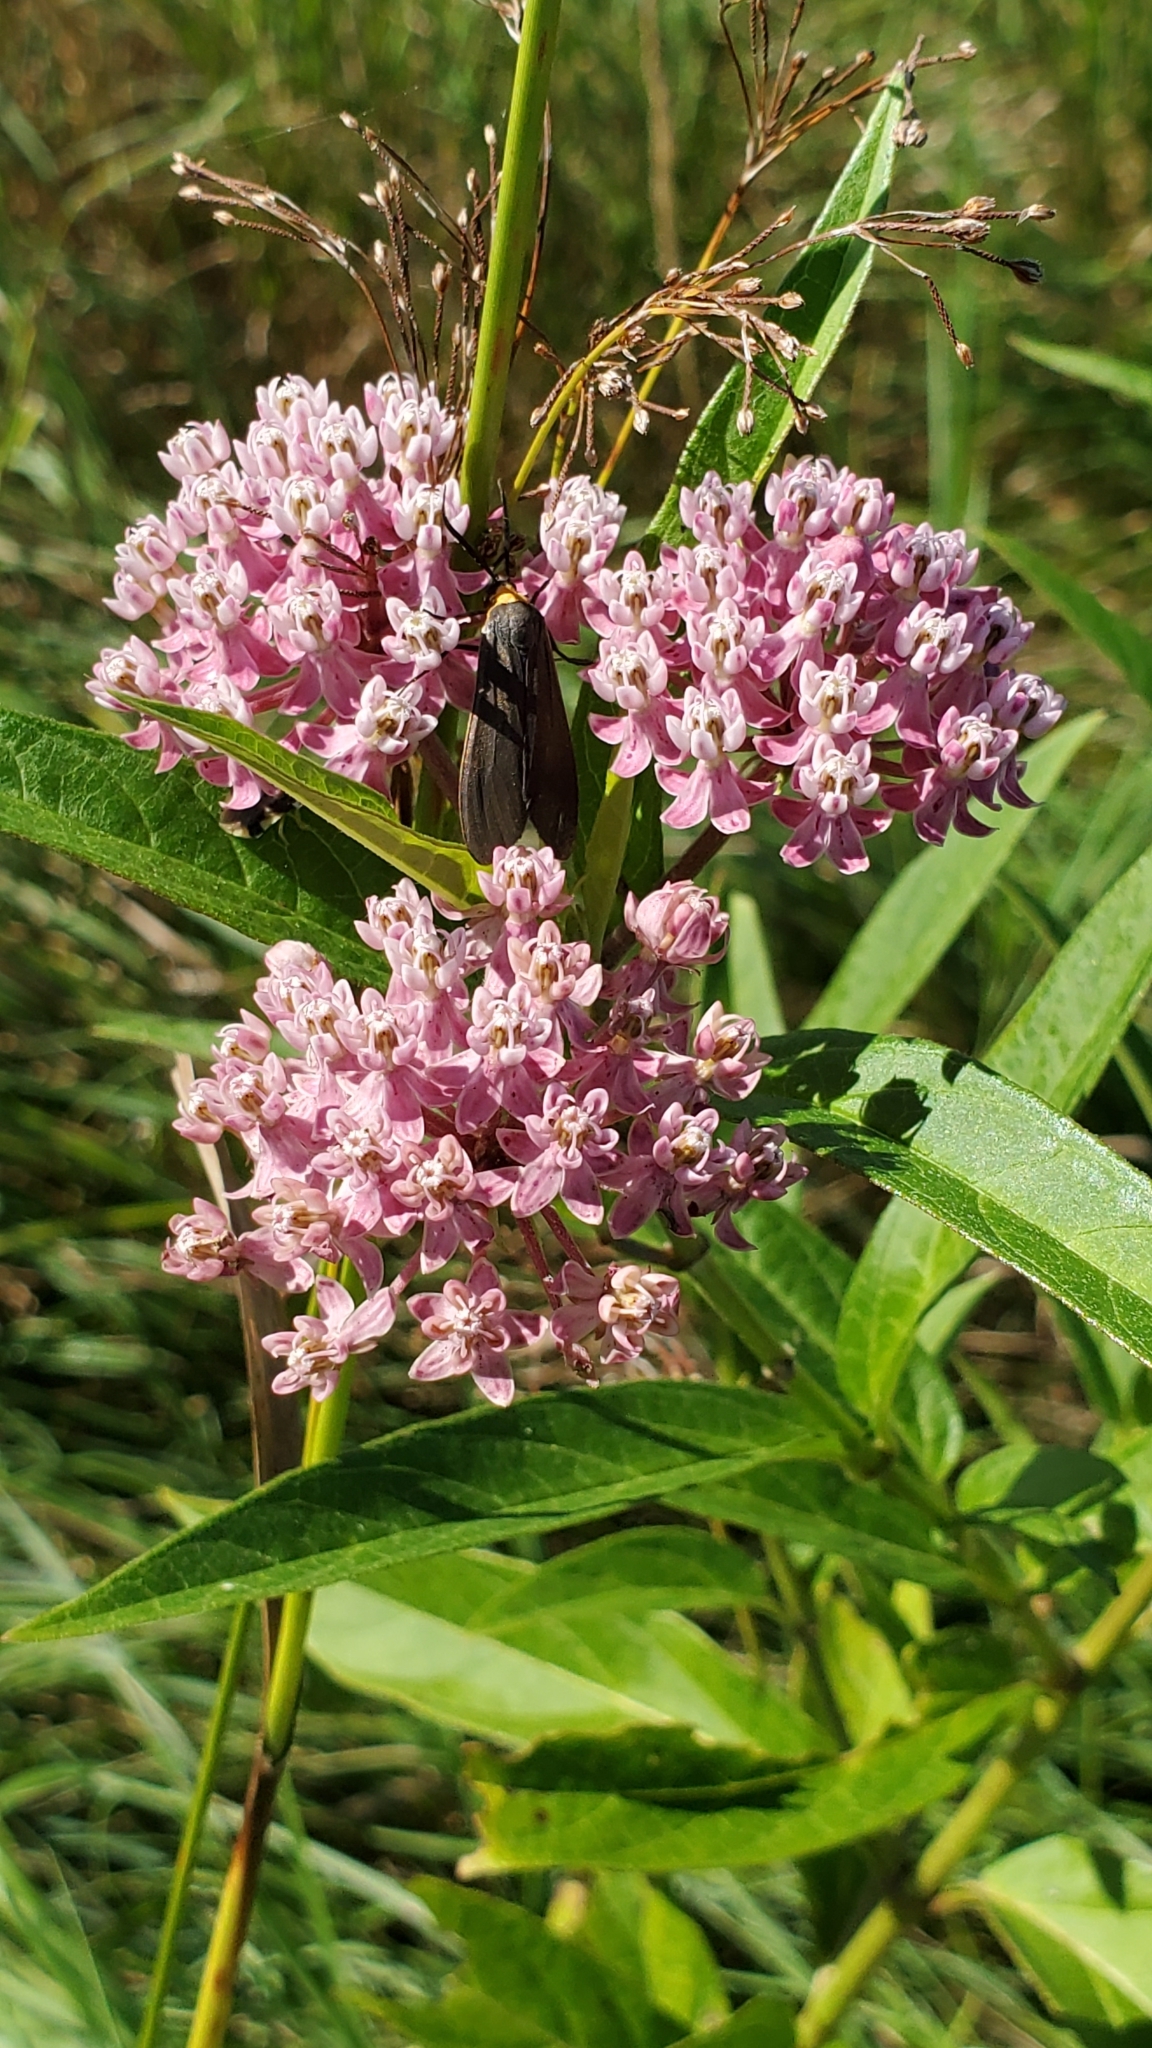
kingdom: Animalia
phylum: Arthropoda
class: Insecta
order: Lepidoptera
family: Erebidae
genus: Cisseps
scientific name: Cisseps fulvicollis
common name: Yellow-collared scape moth
